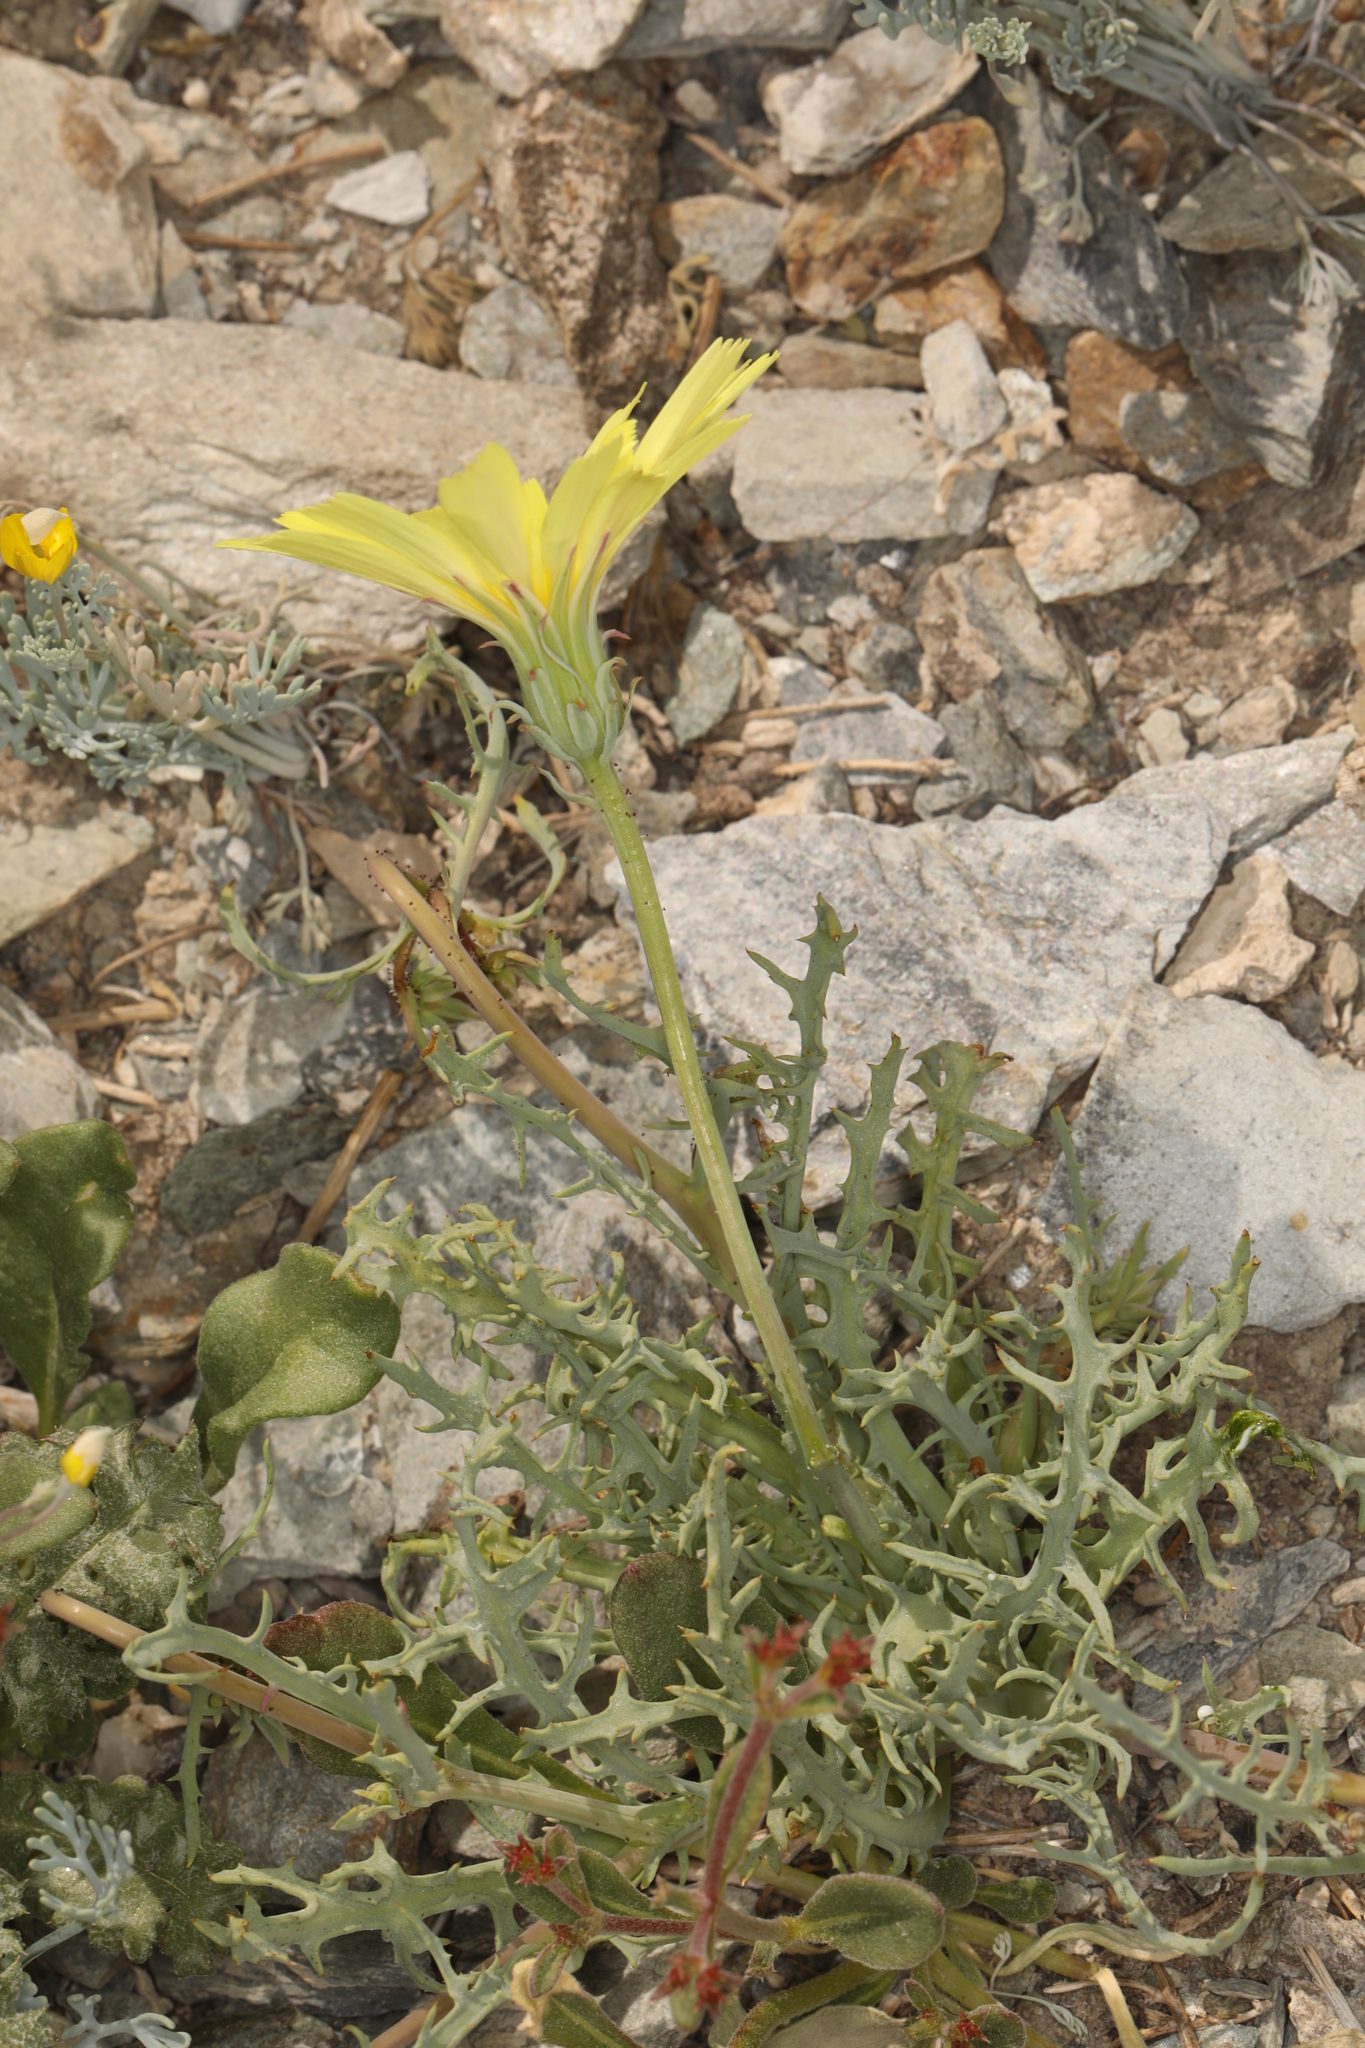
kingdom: Plantae
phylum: Tracheophyta
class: Magnoliopsida
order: Asterales
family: Asteraceae
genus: Calycoseris
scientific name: Calycoseris parryi
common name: Yellow tackstem
